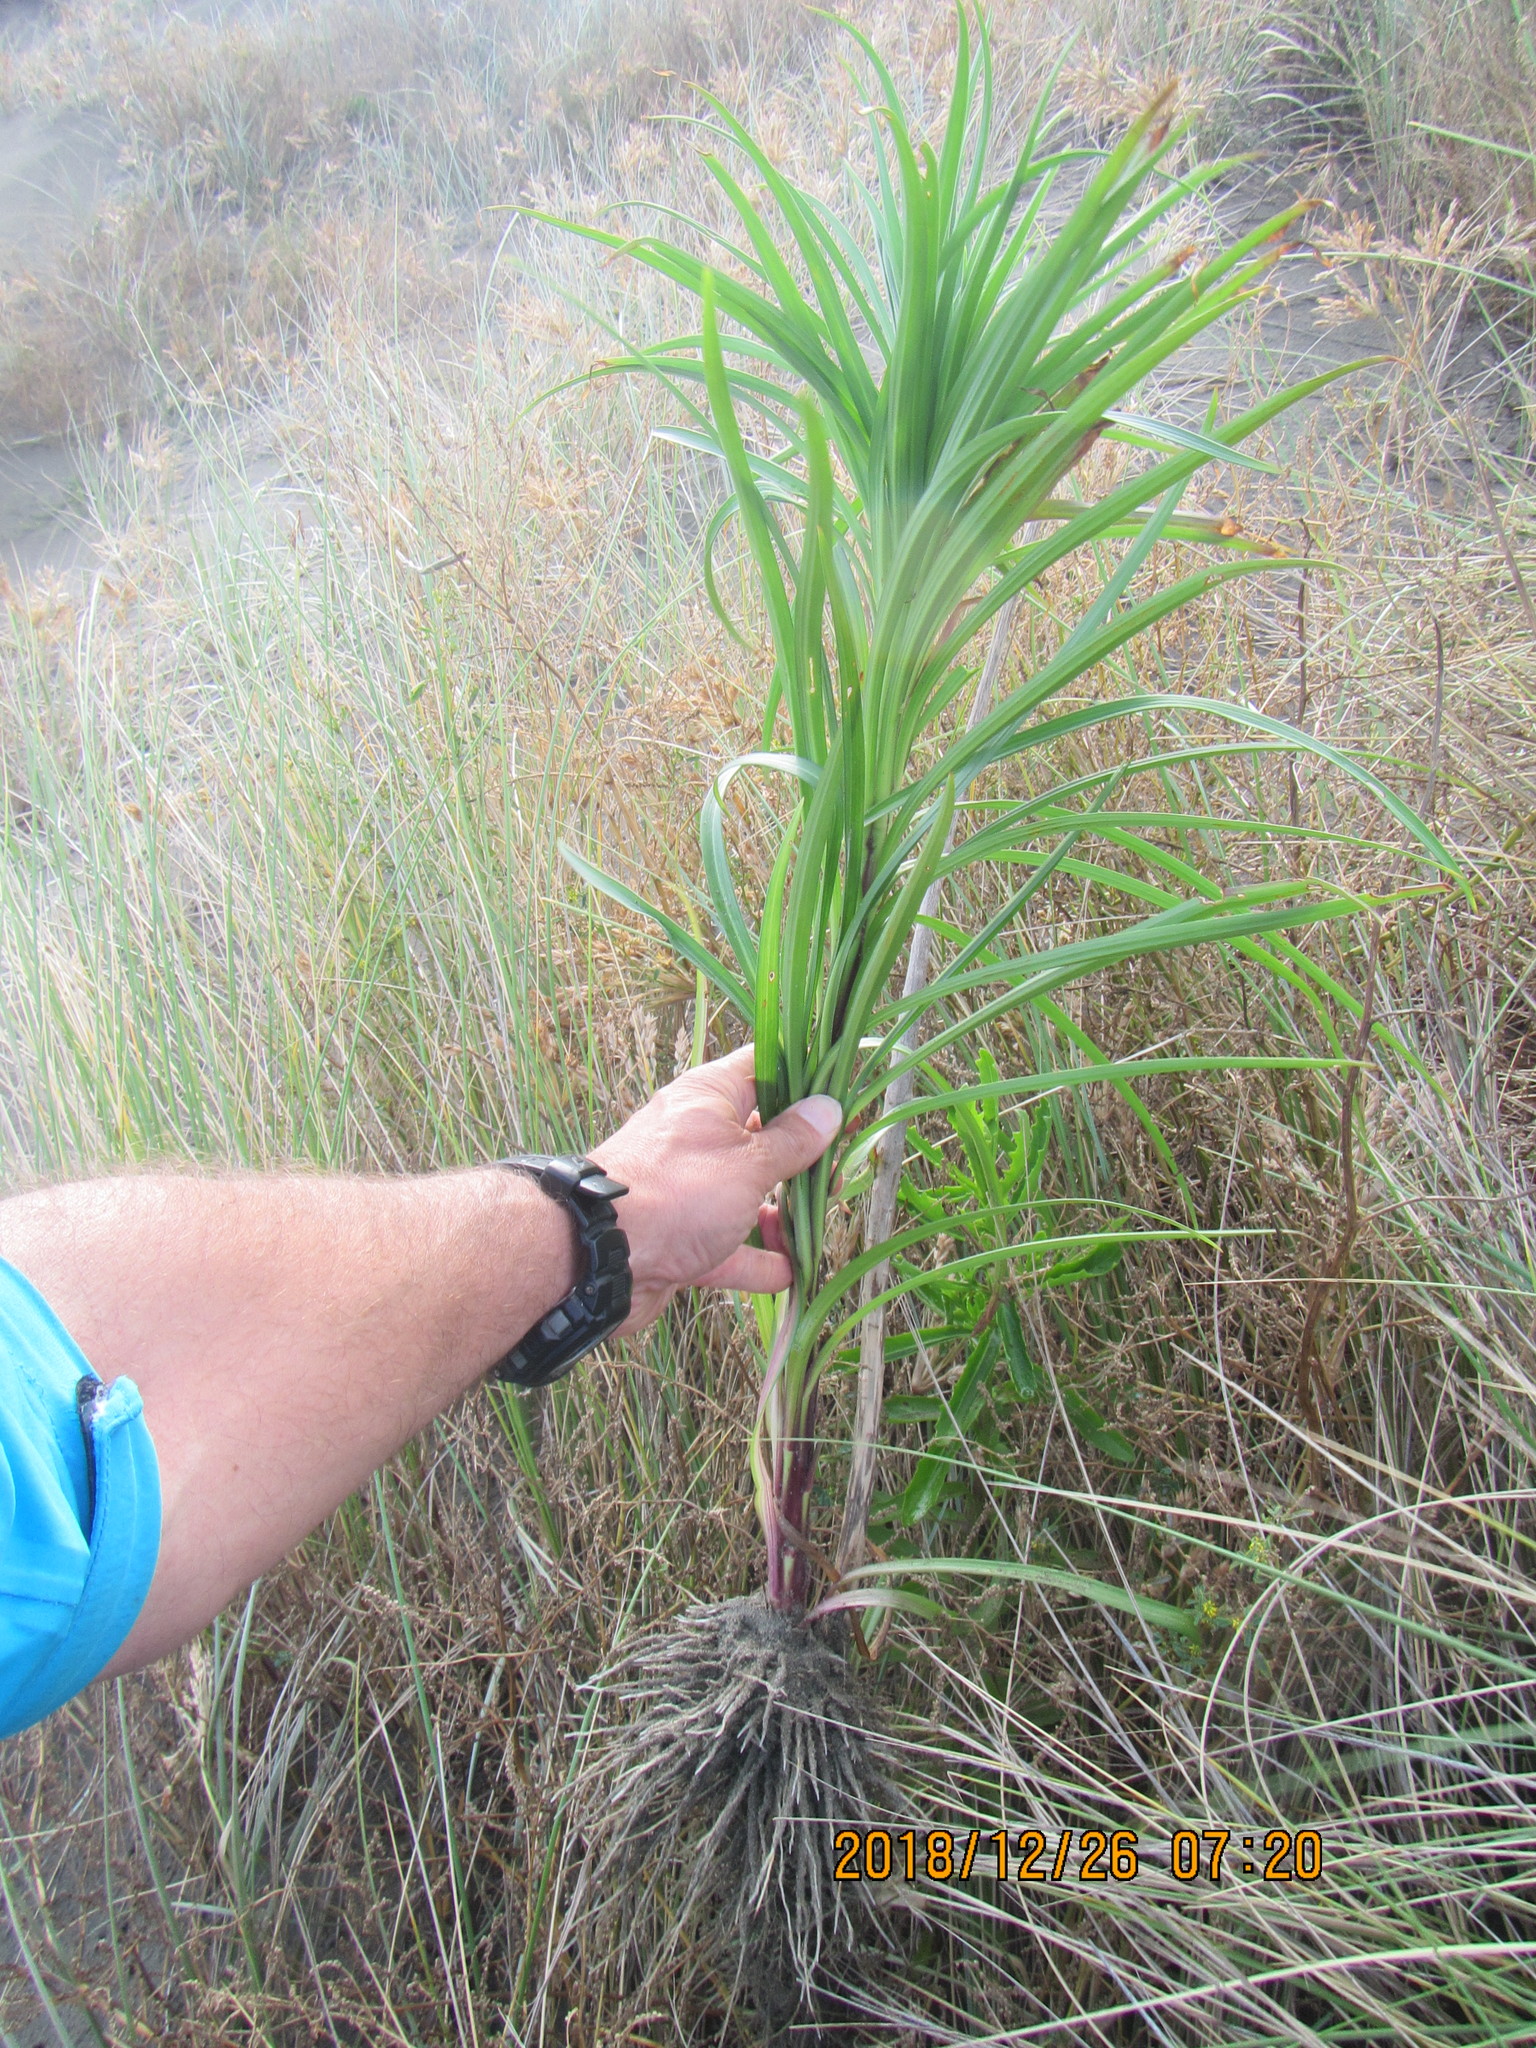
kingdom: Plantae
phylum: Tracheophyta
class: Liliopsida
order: Liliales
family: Liliaceae
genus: Lilium
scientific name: Lilium formosanum
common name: Formosa lily
